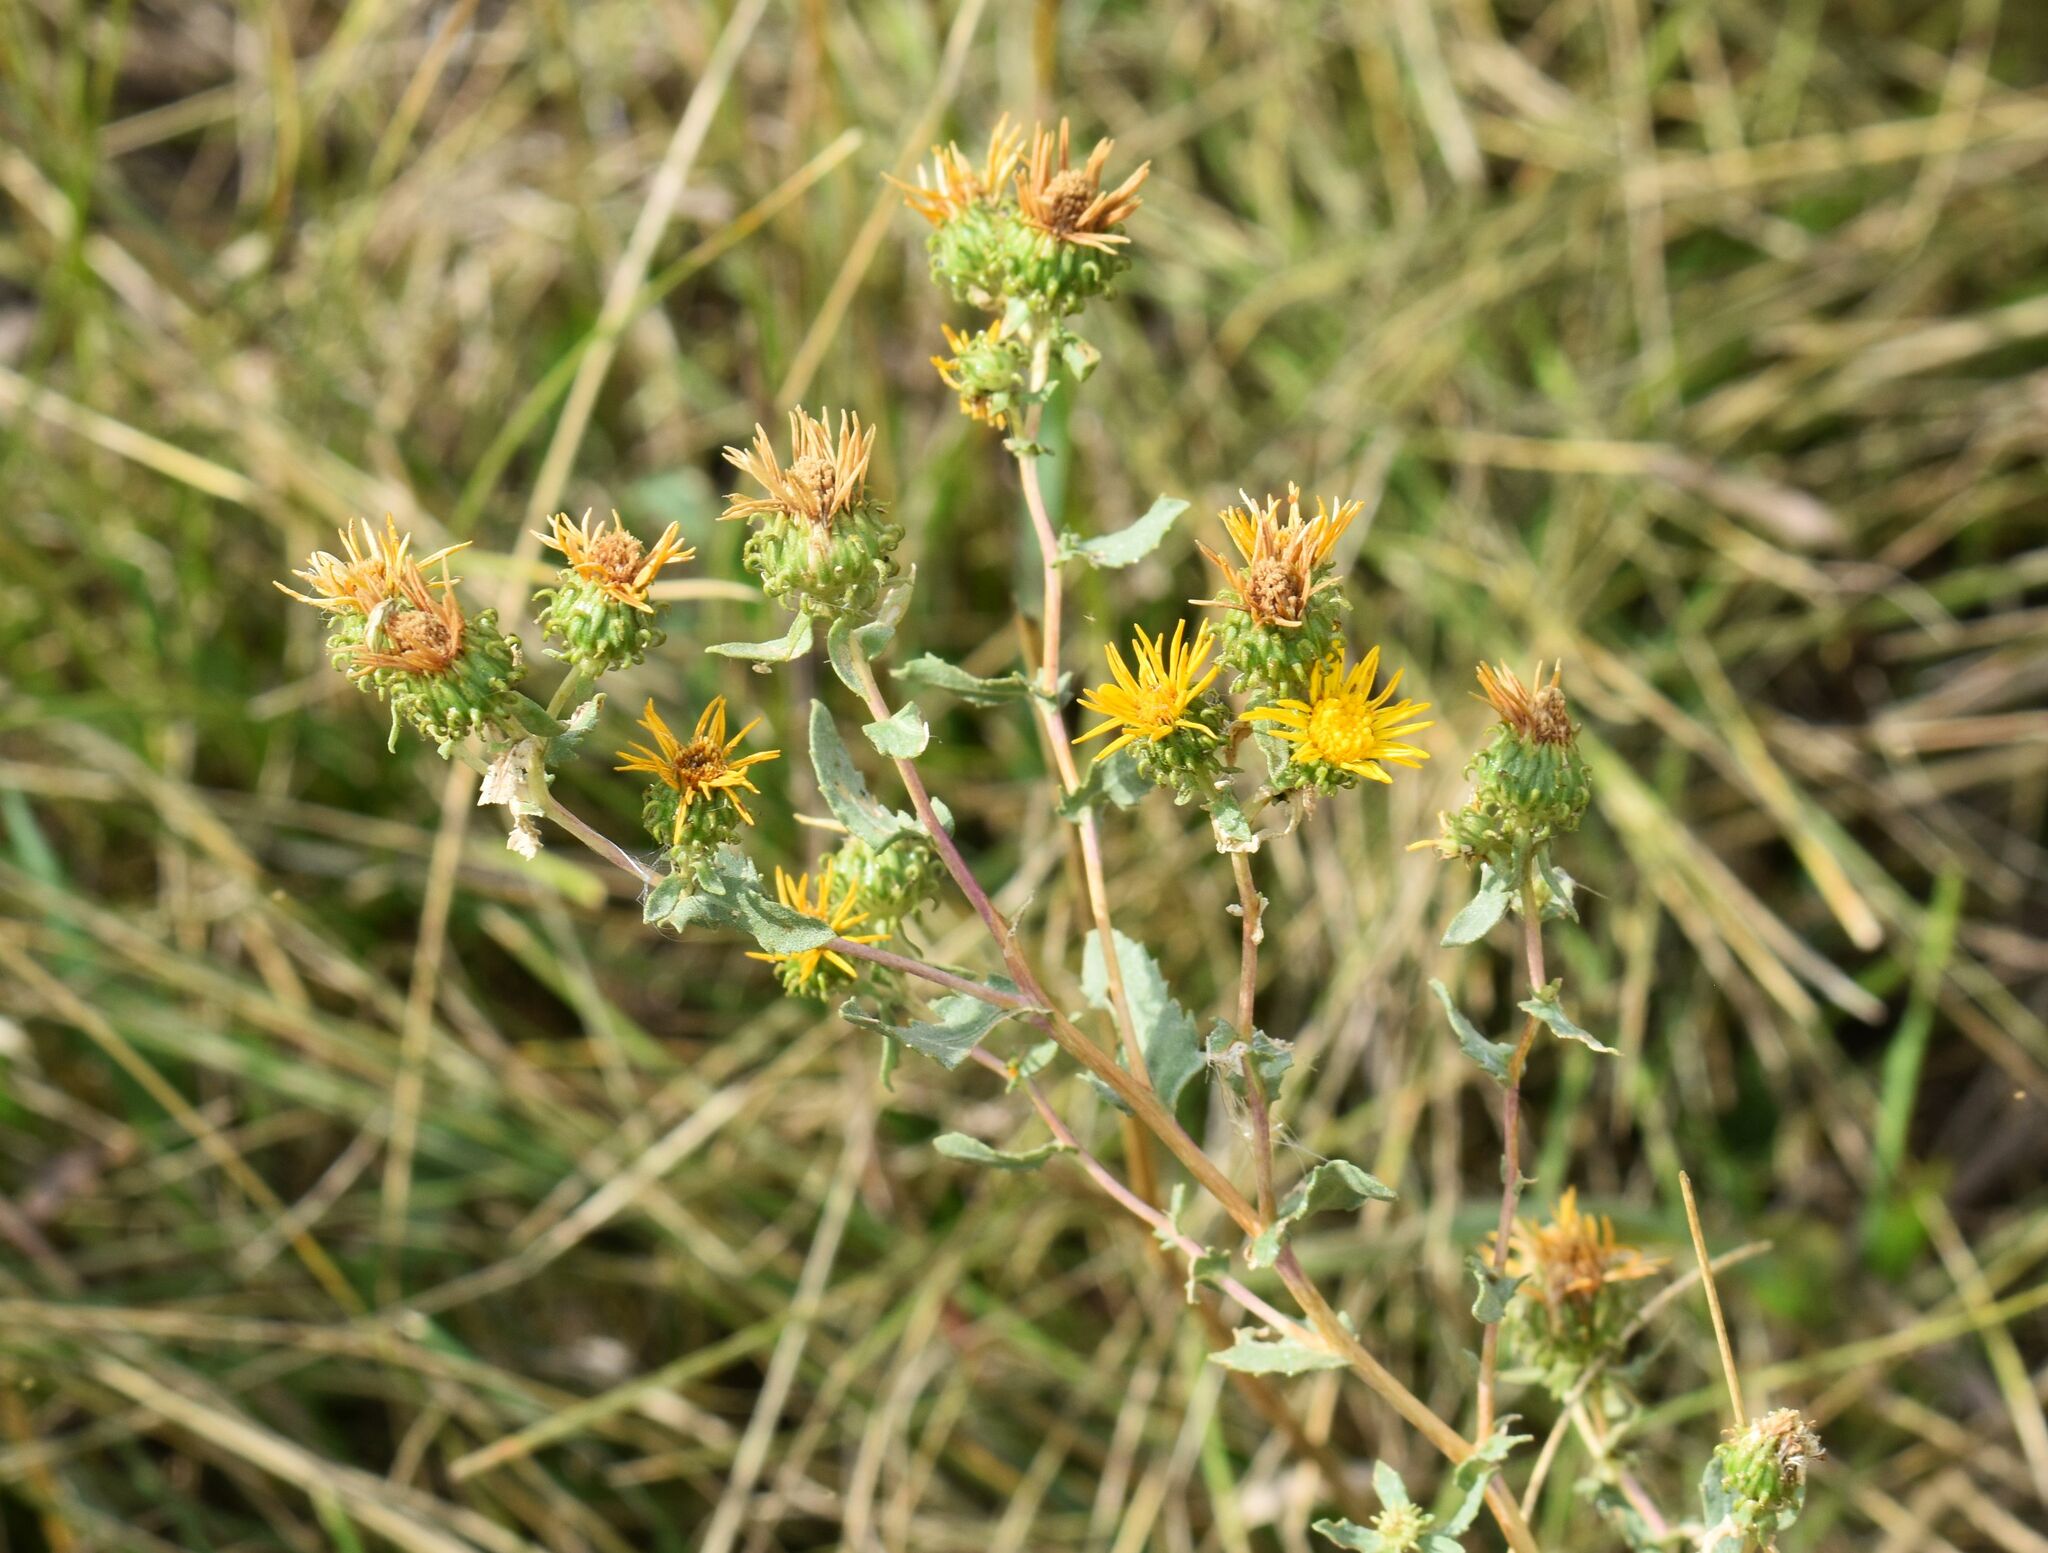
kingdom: Plantae
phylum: Tracheophyta
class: Magnoliopsida
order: Asterales
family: Asteraceae
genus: Grindelia
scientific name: Grindelia squarrosa
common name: Curly-cup gumweed
